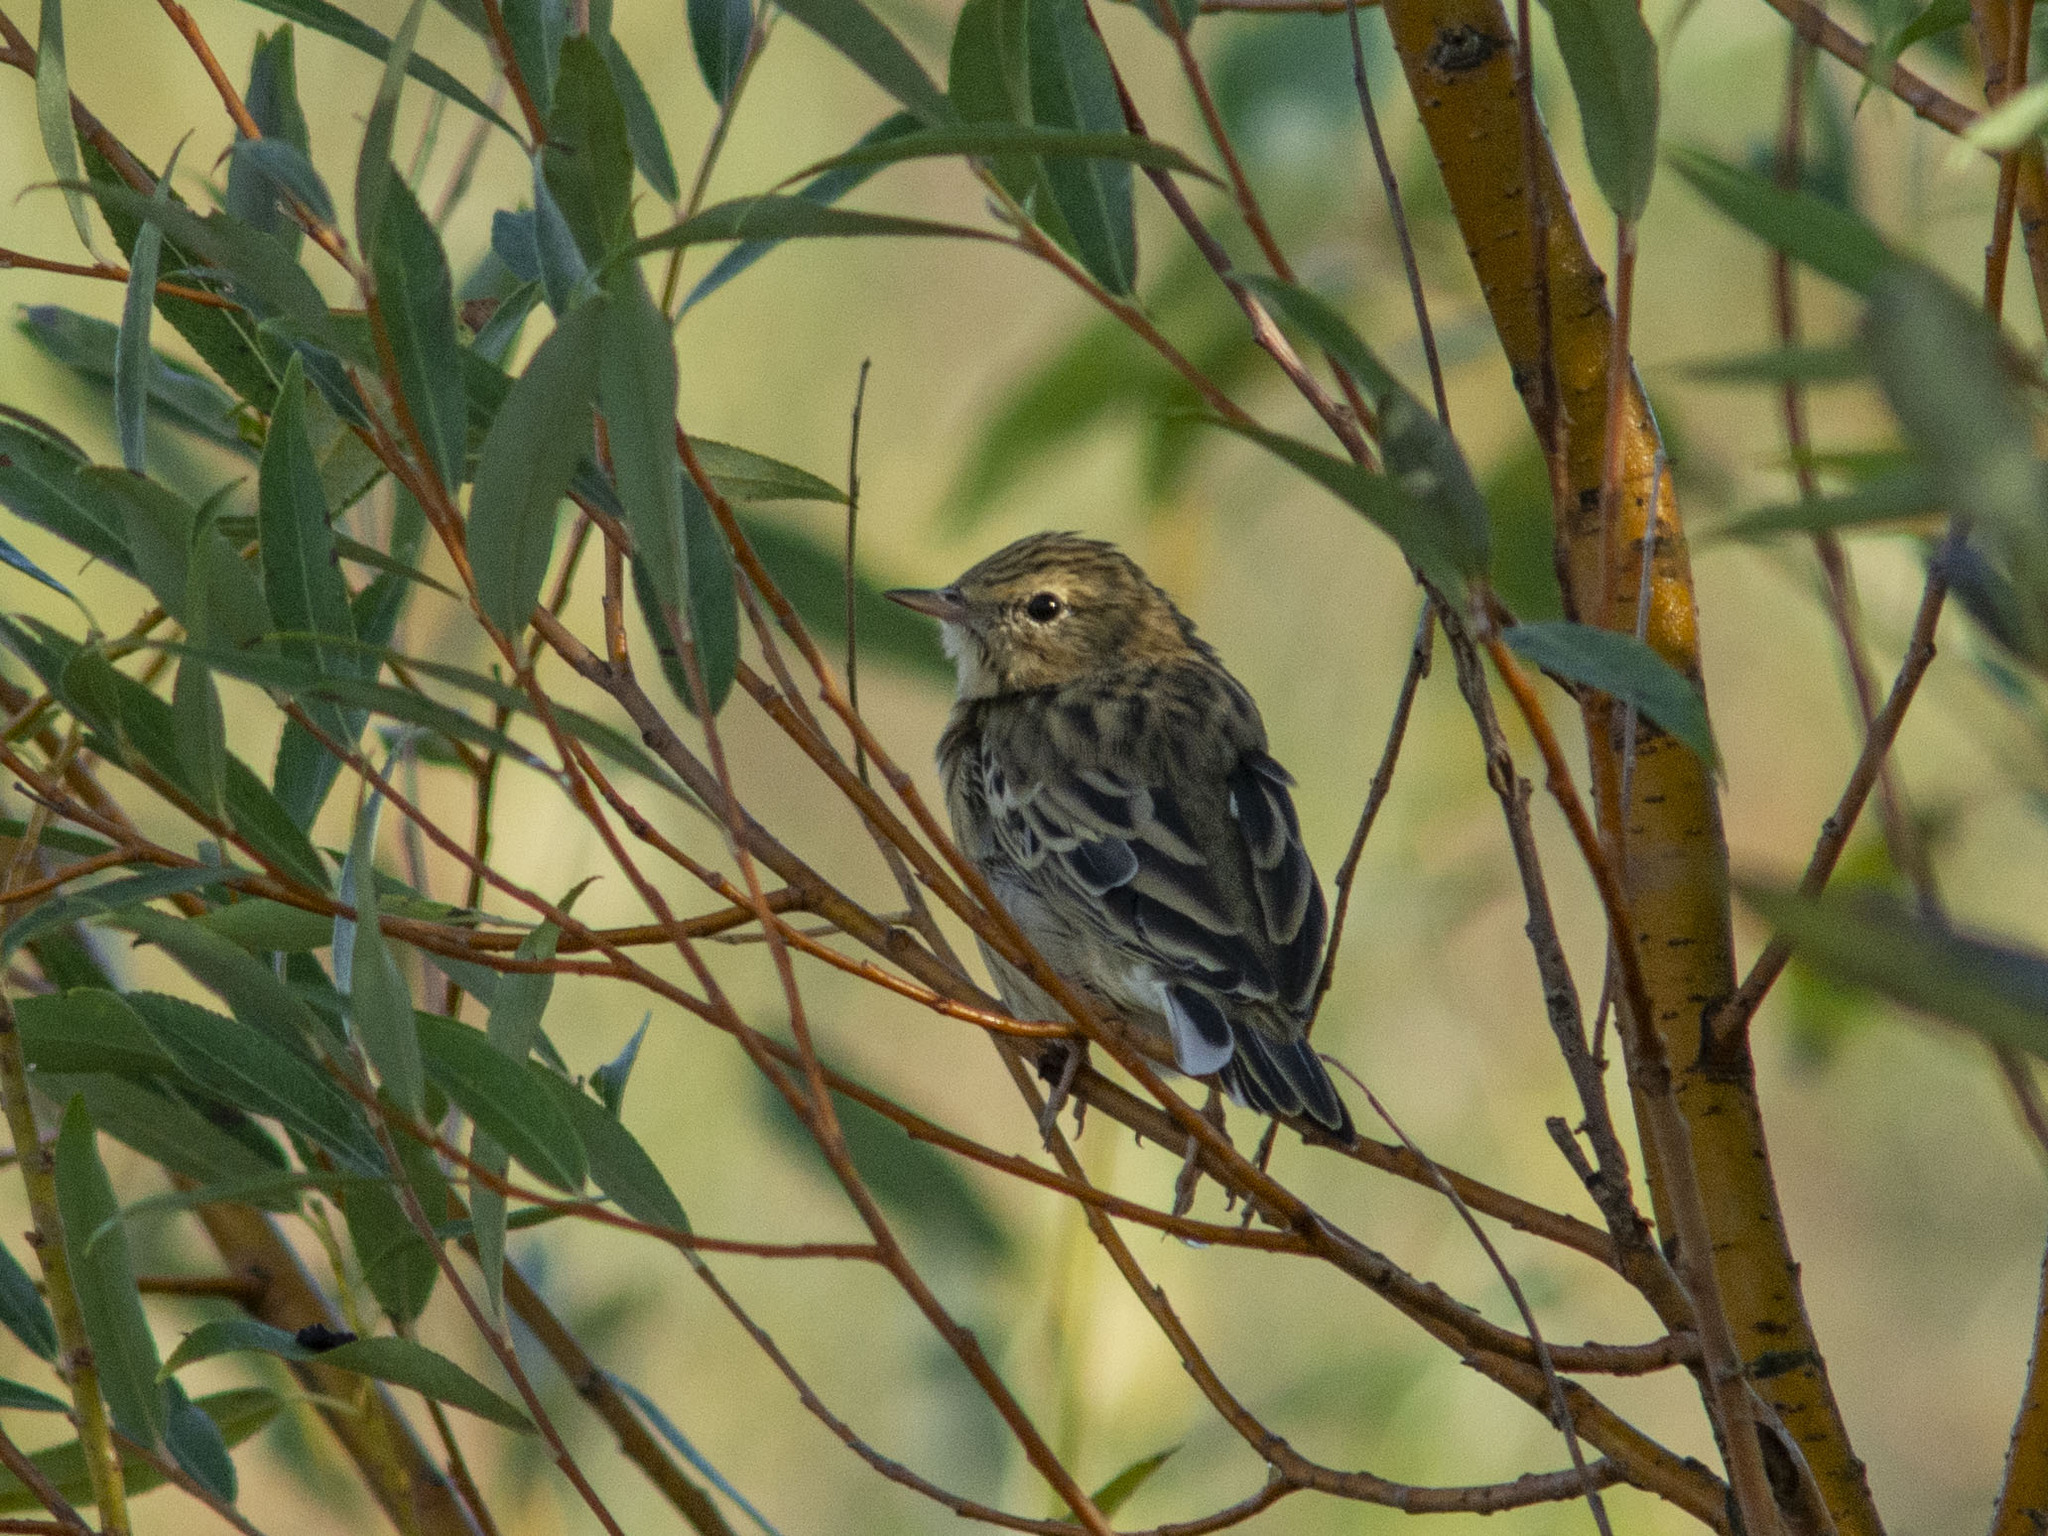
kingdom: Animalia
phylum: Chordata
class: Aves
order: Passeriformes
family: Motacillidae
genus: Anthus
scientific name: Anthus trivialis
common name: Tree pipit
